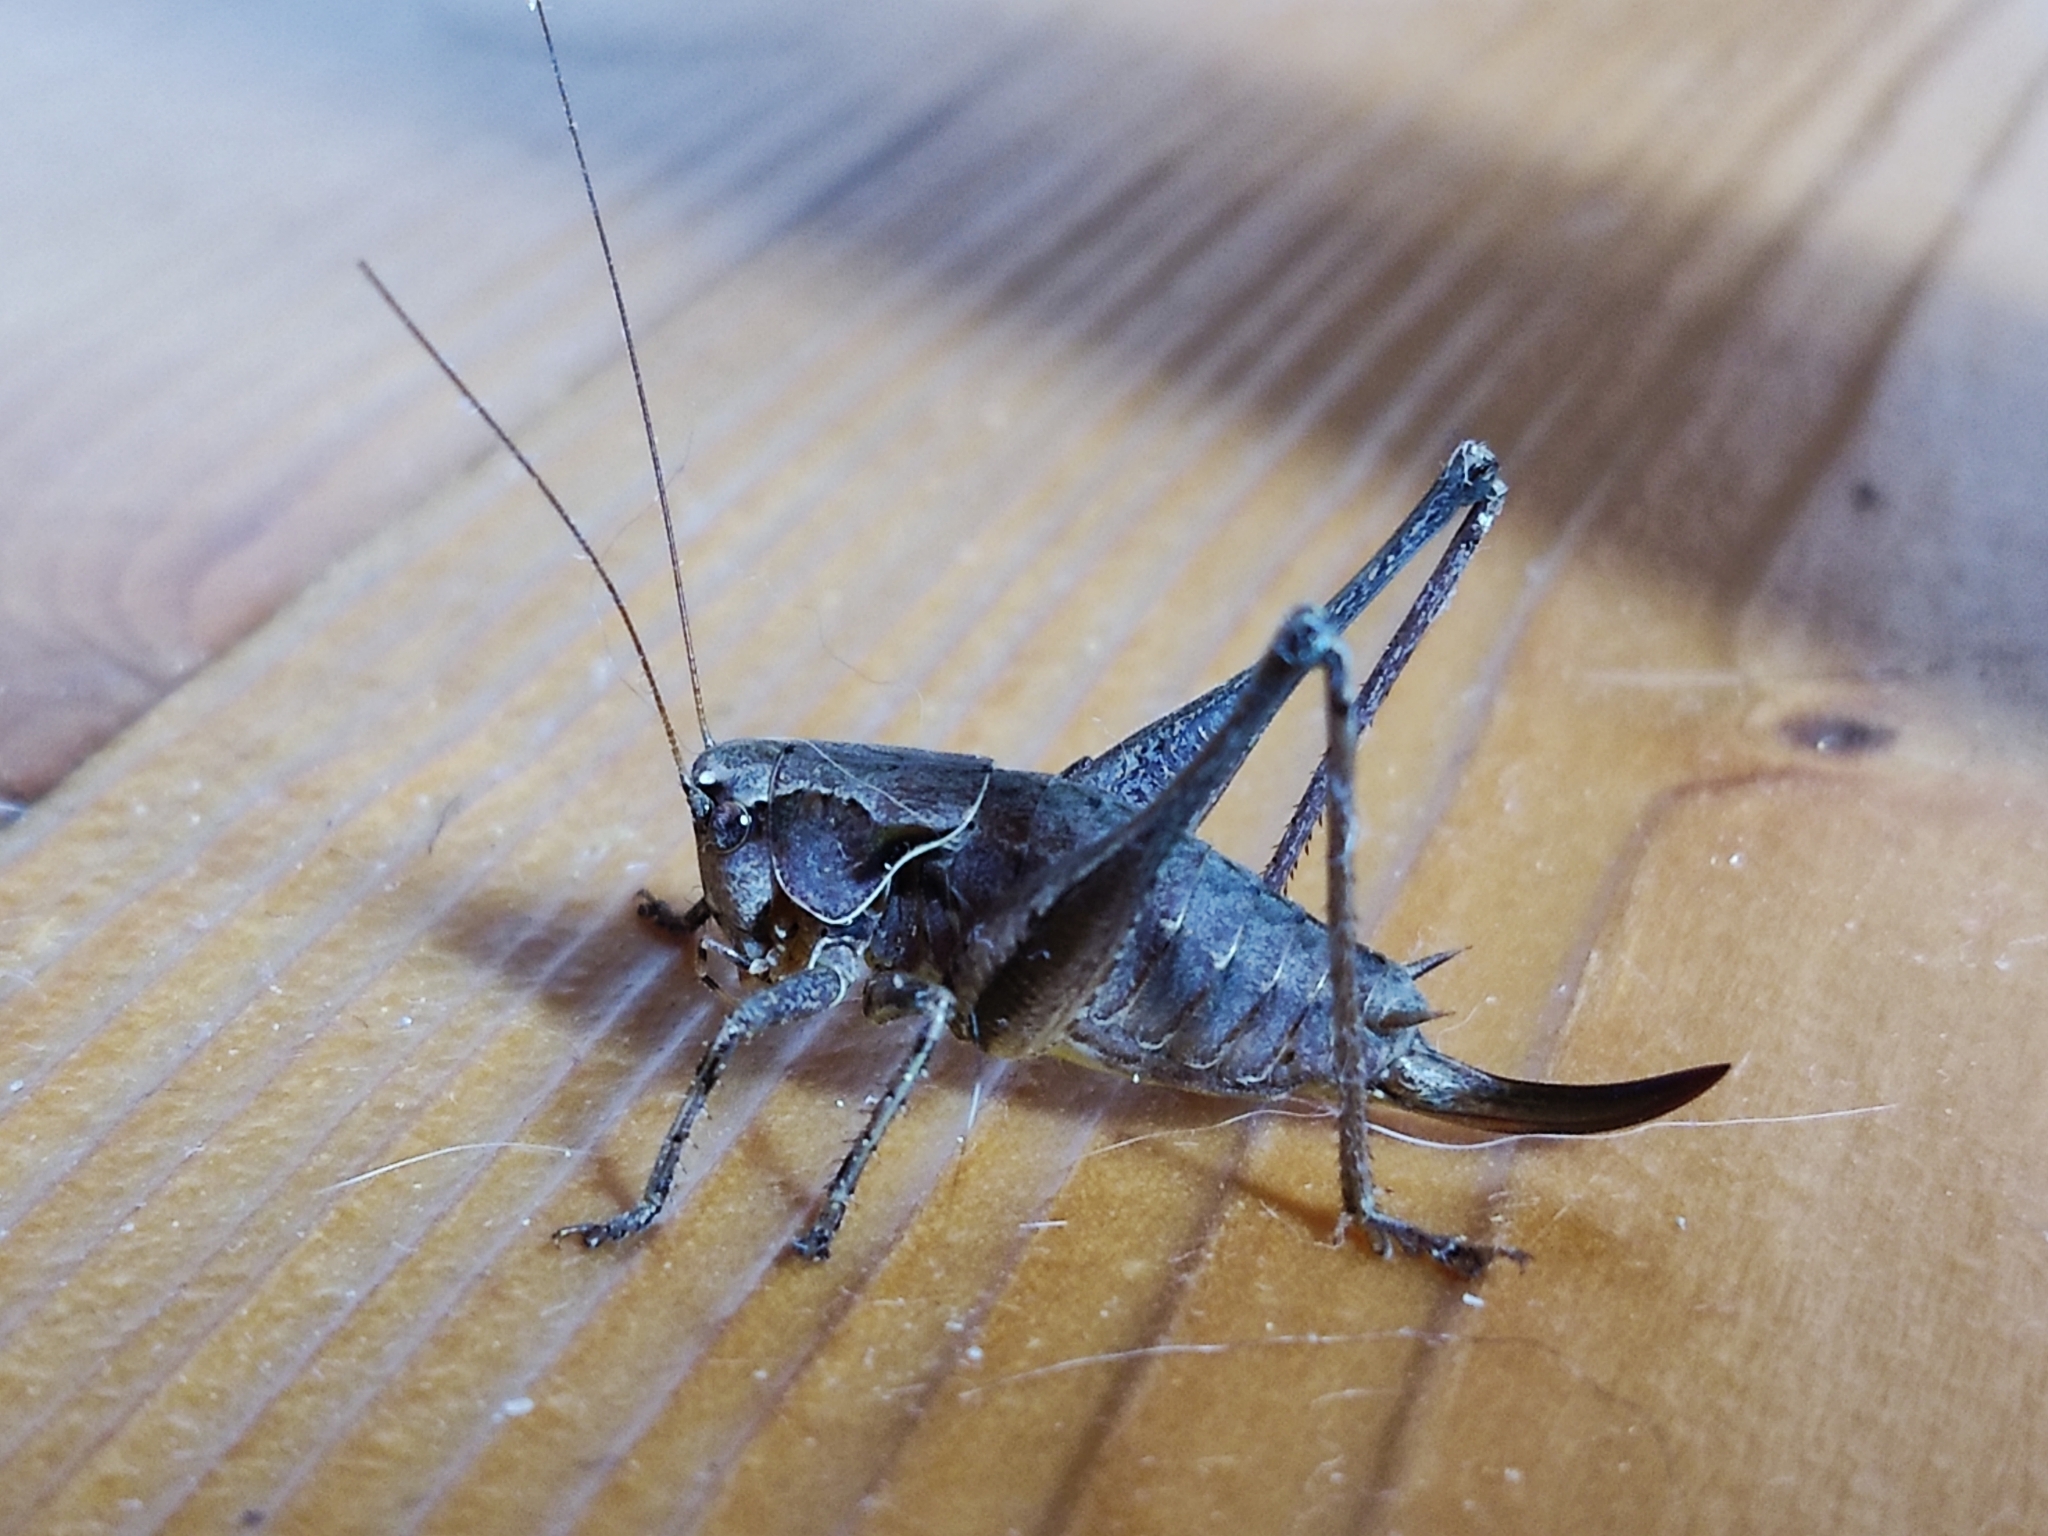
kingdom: Animalia
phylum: Arthropoda
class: Insecta
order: Orthoptera
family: Tettigoniidae
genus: Pholidoptera
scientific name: Pholidoptera griseoaptera
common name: Dark bush-cricket
